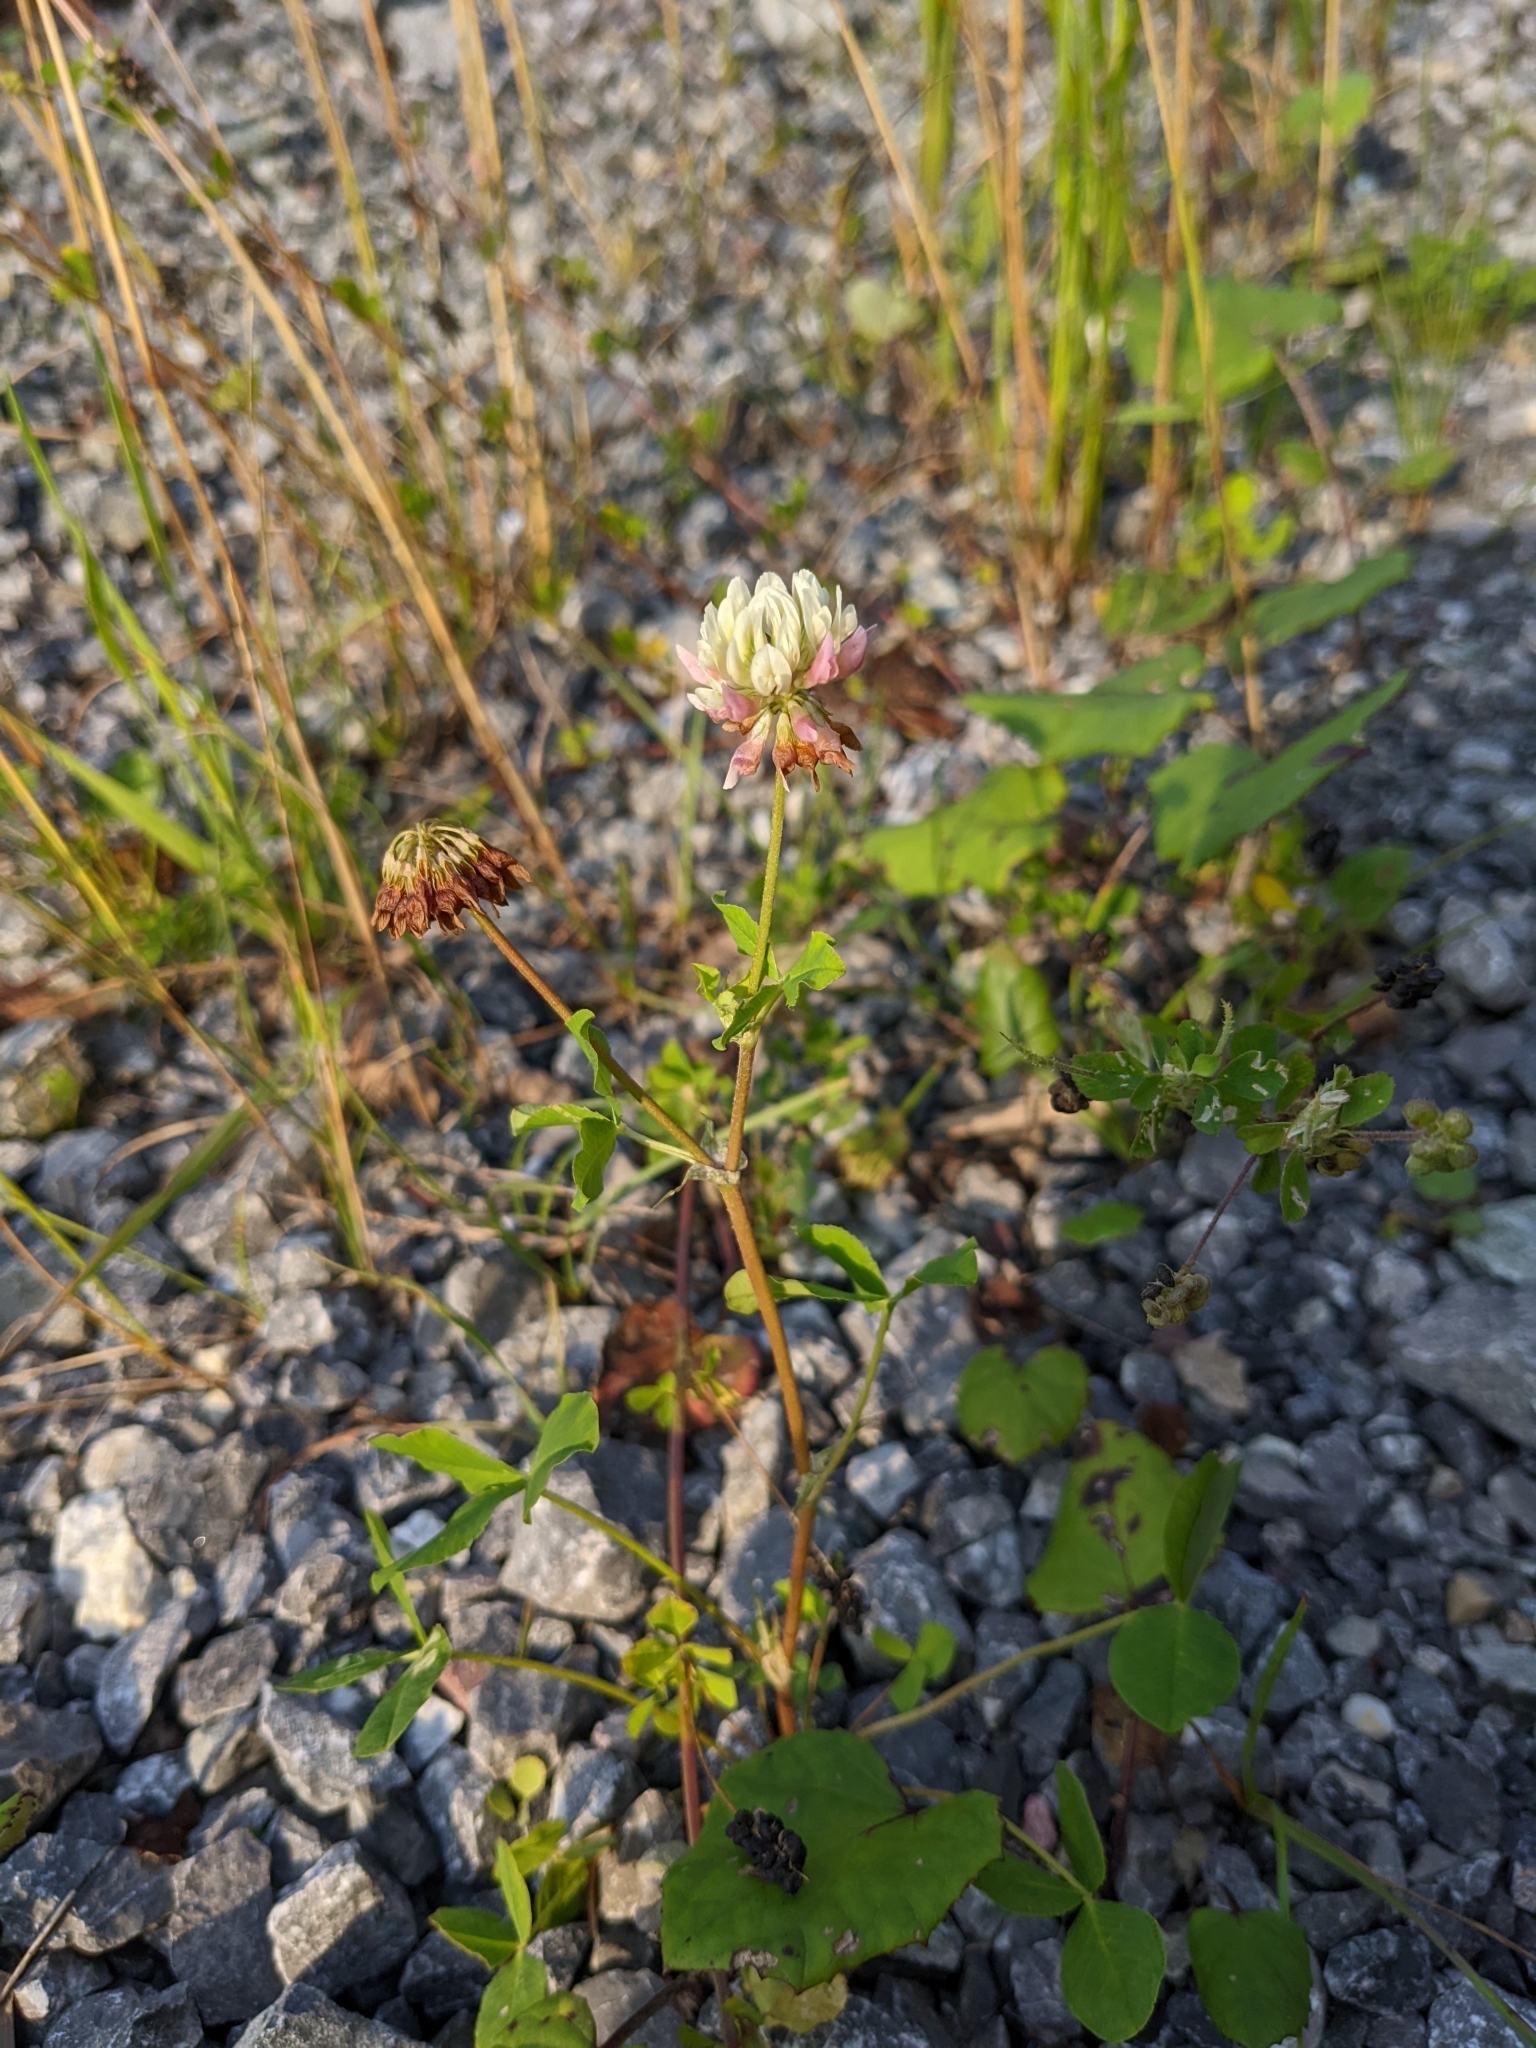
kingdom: Plantae
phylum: Tracheophyta
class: Magnoliopsida
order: Fabales
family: Fabaceae
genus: Trifolium
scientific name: Trifolium hybridum
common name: Alsike clover
